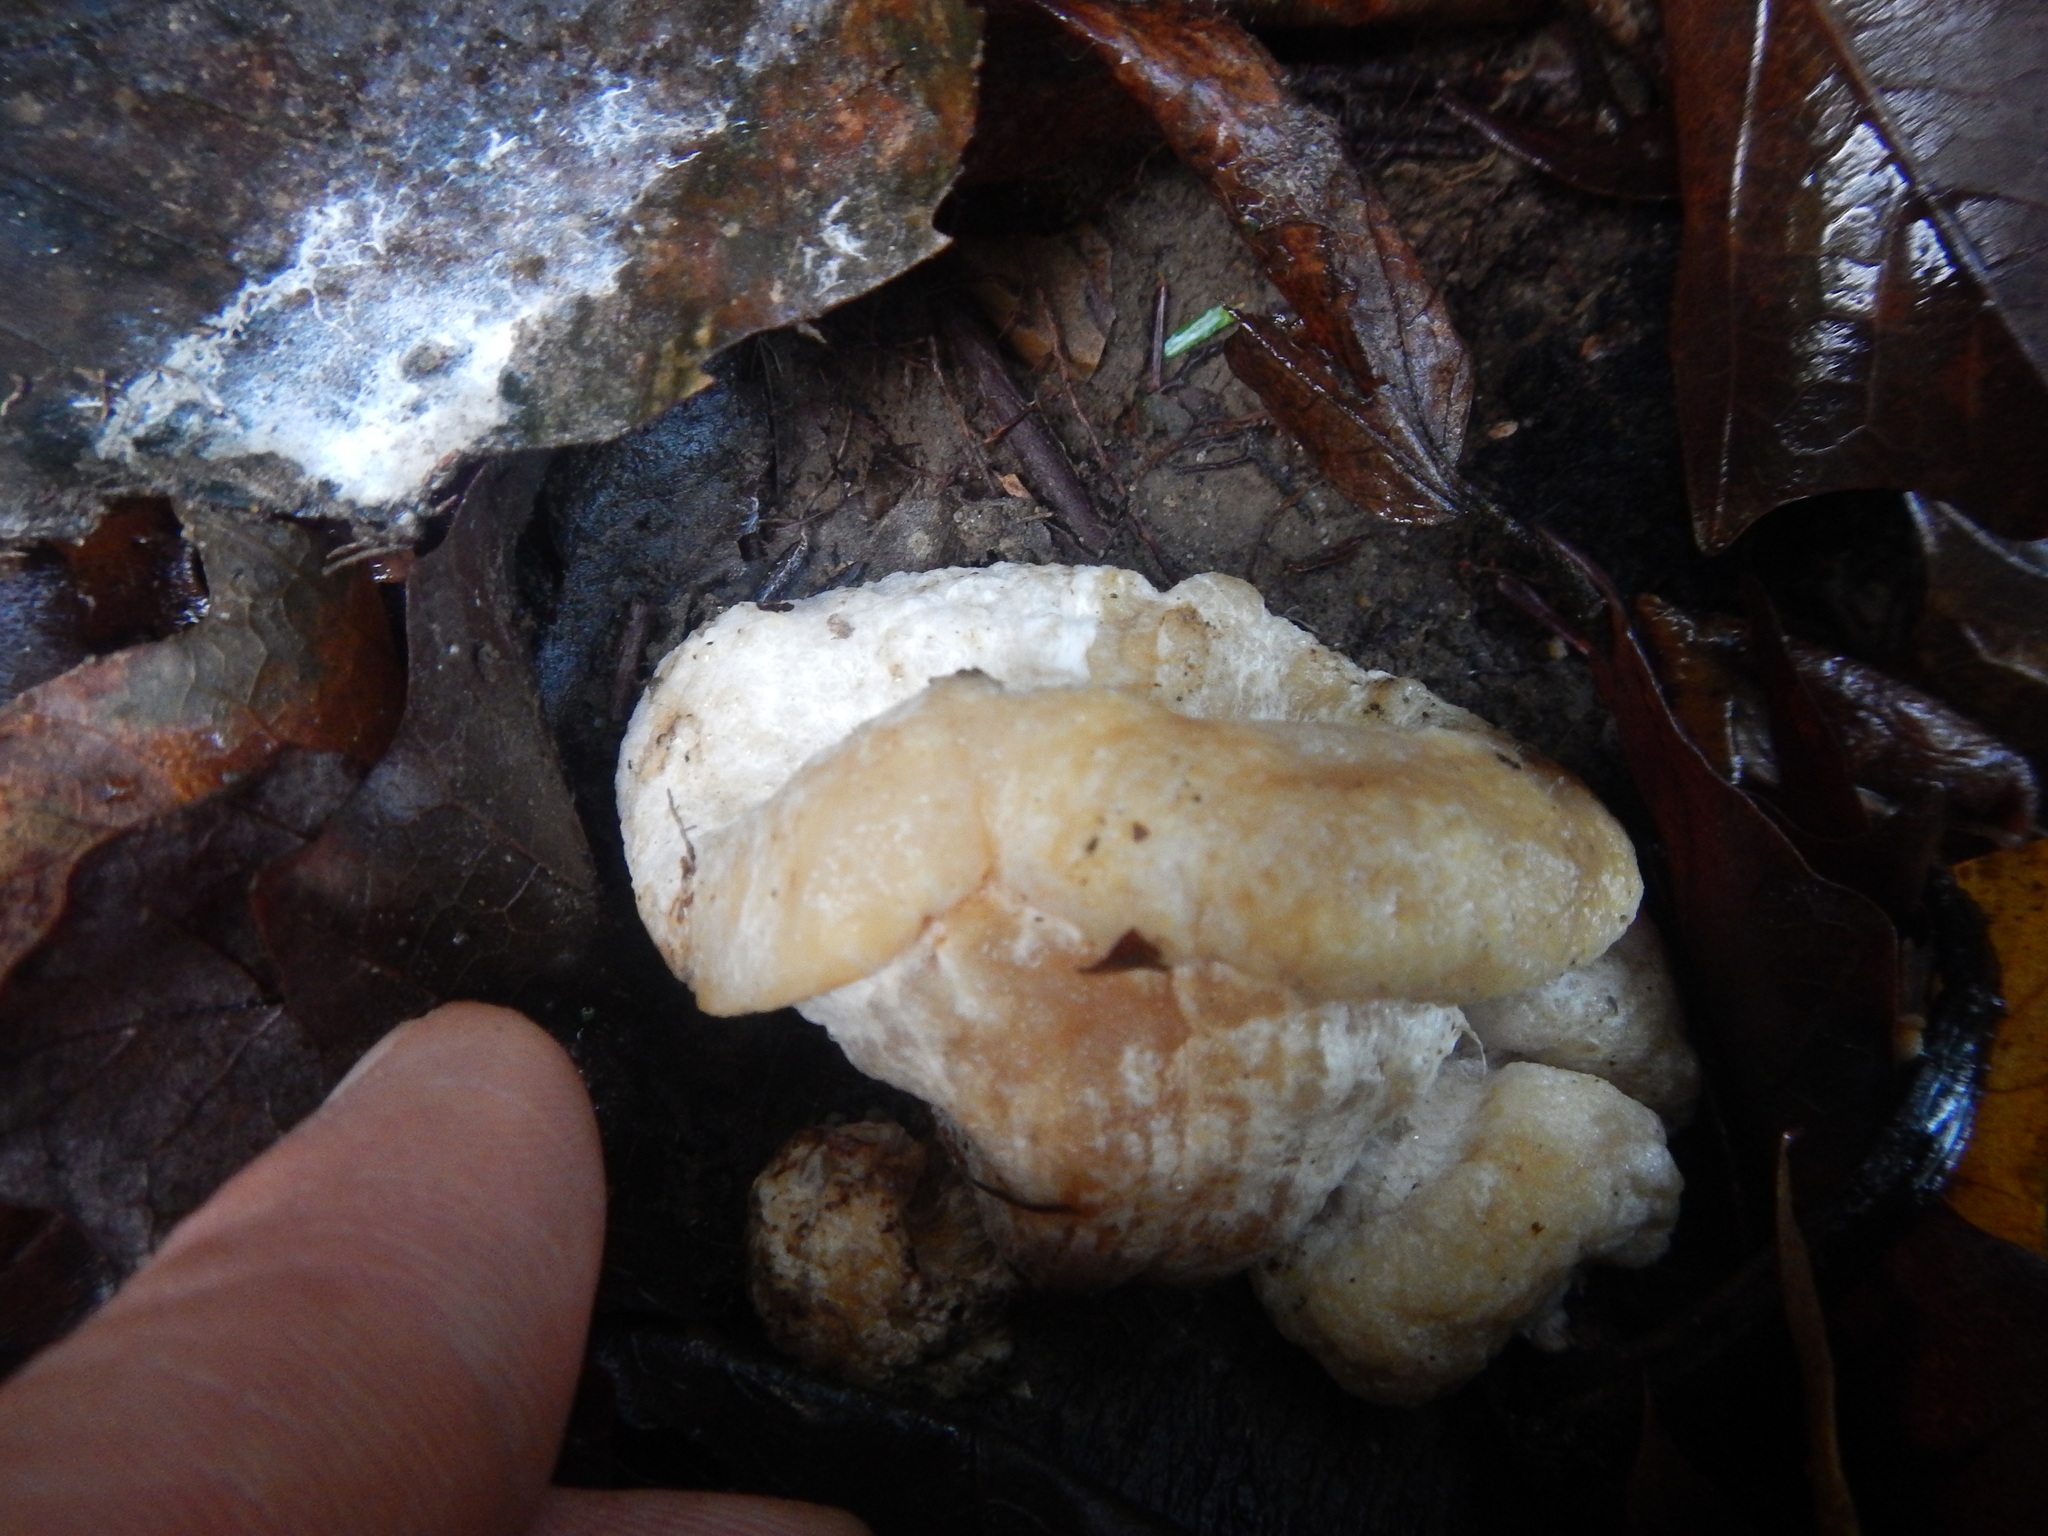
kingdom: Fungi
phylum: Basidiomycota
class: Agaricomycetes
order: Agaricales
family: Entolomataceae
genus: Entoloma
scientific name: Entoloma abortivum
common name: Aborted entoloma
